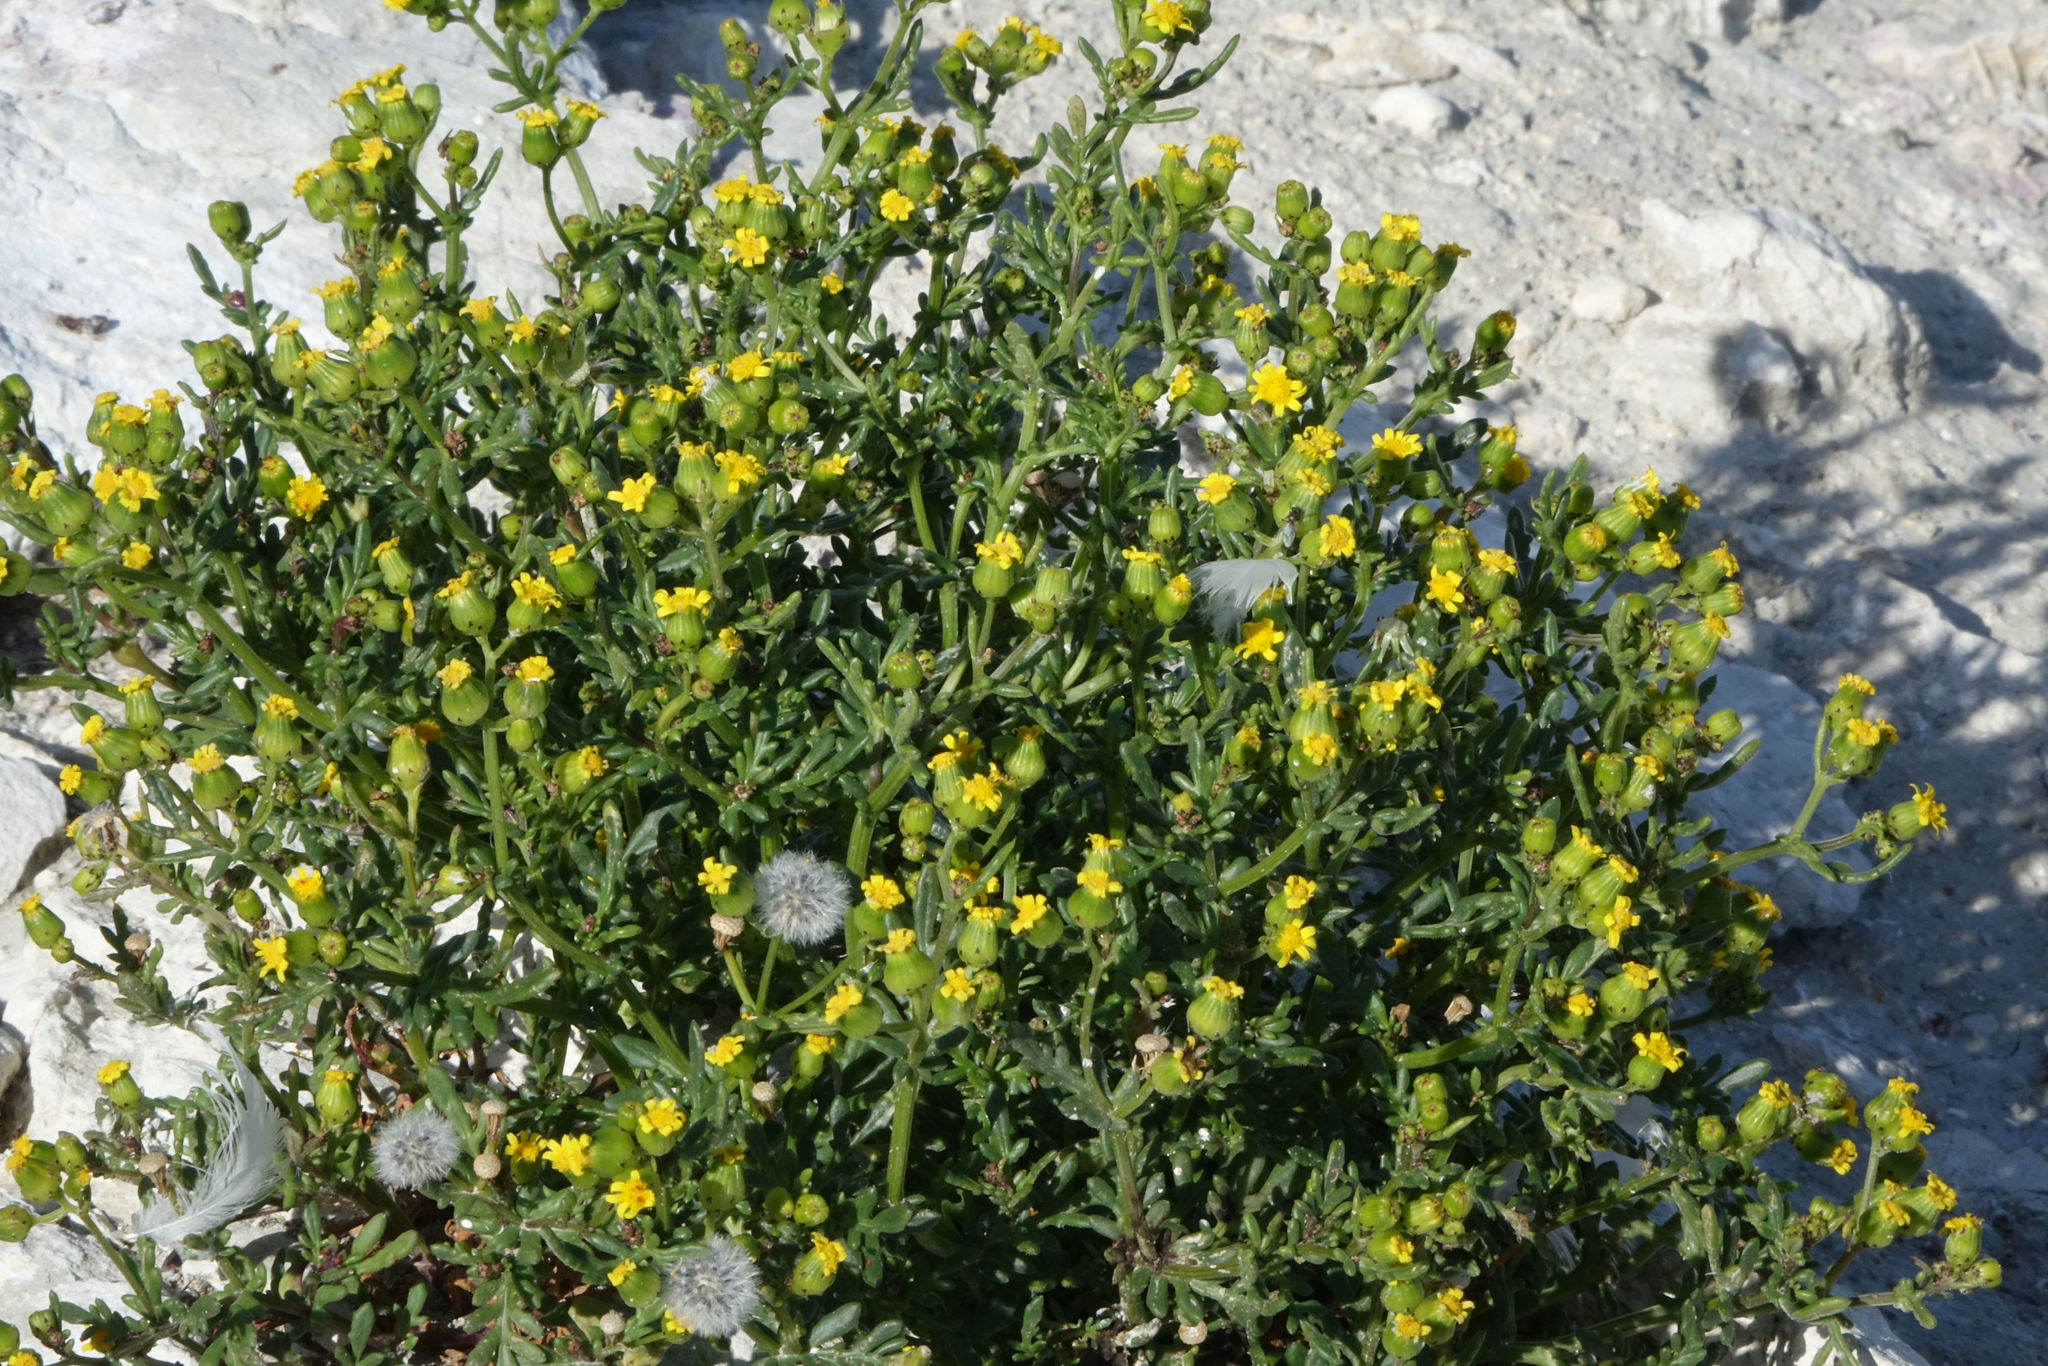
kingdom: Plantae
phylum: Tracheophyta
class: Magnoliopsida
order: Asterales
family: Asteraceae
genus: Senecio
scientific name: Senecio lautus
